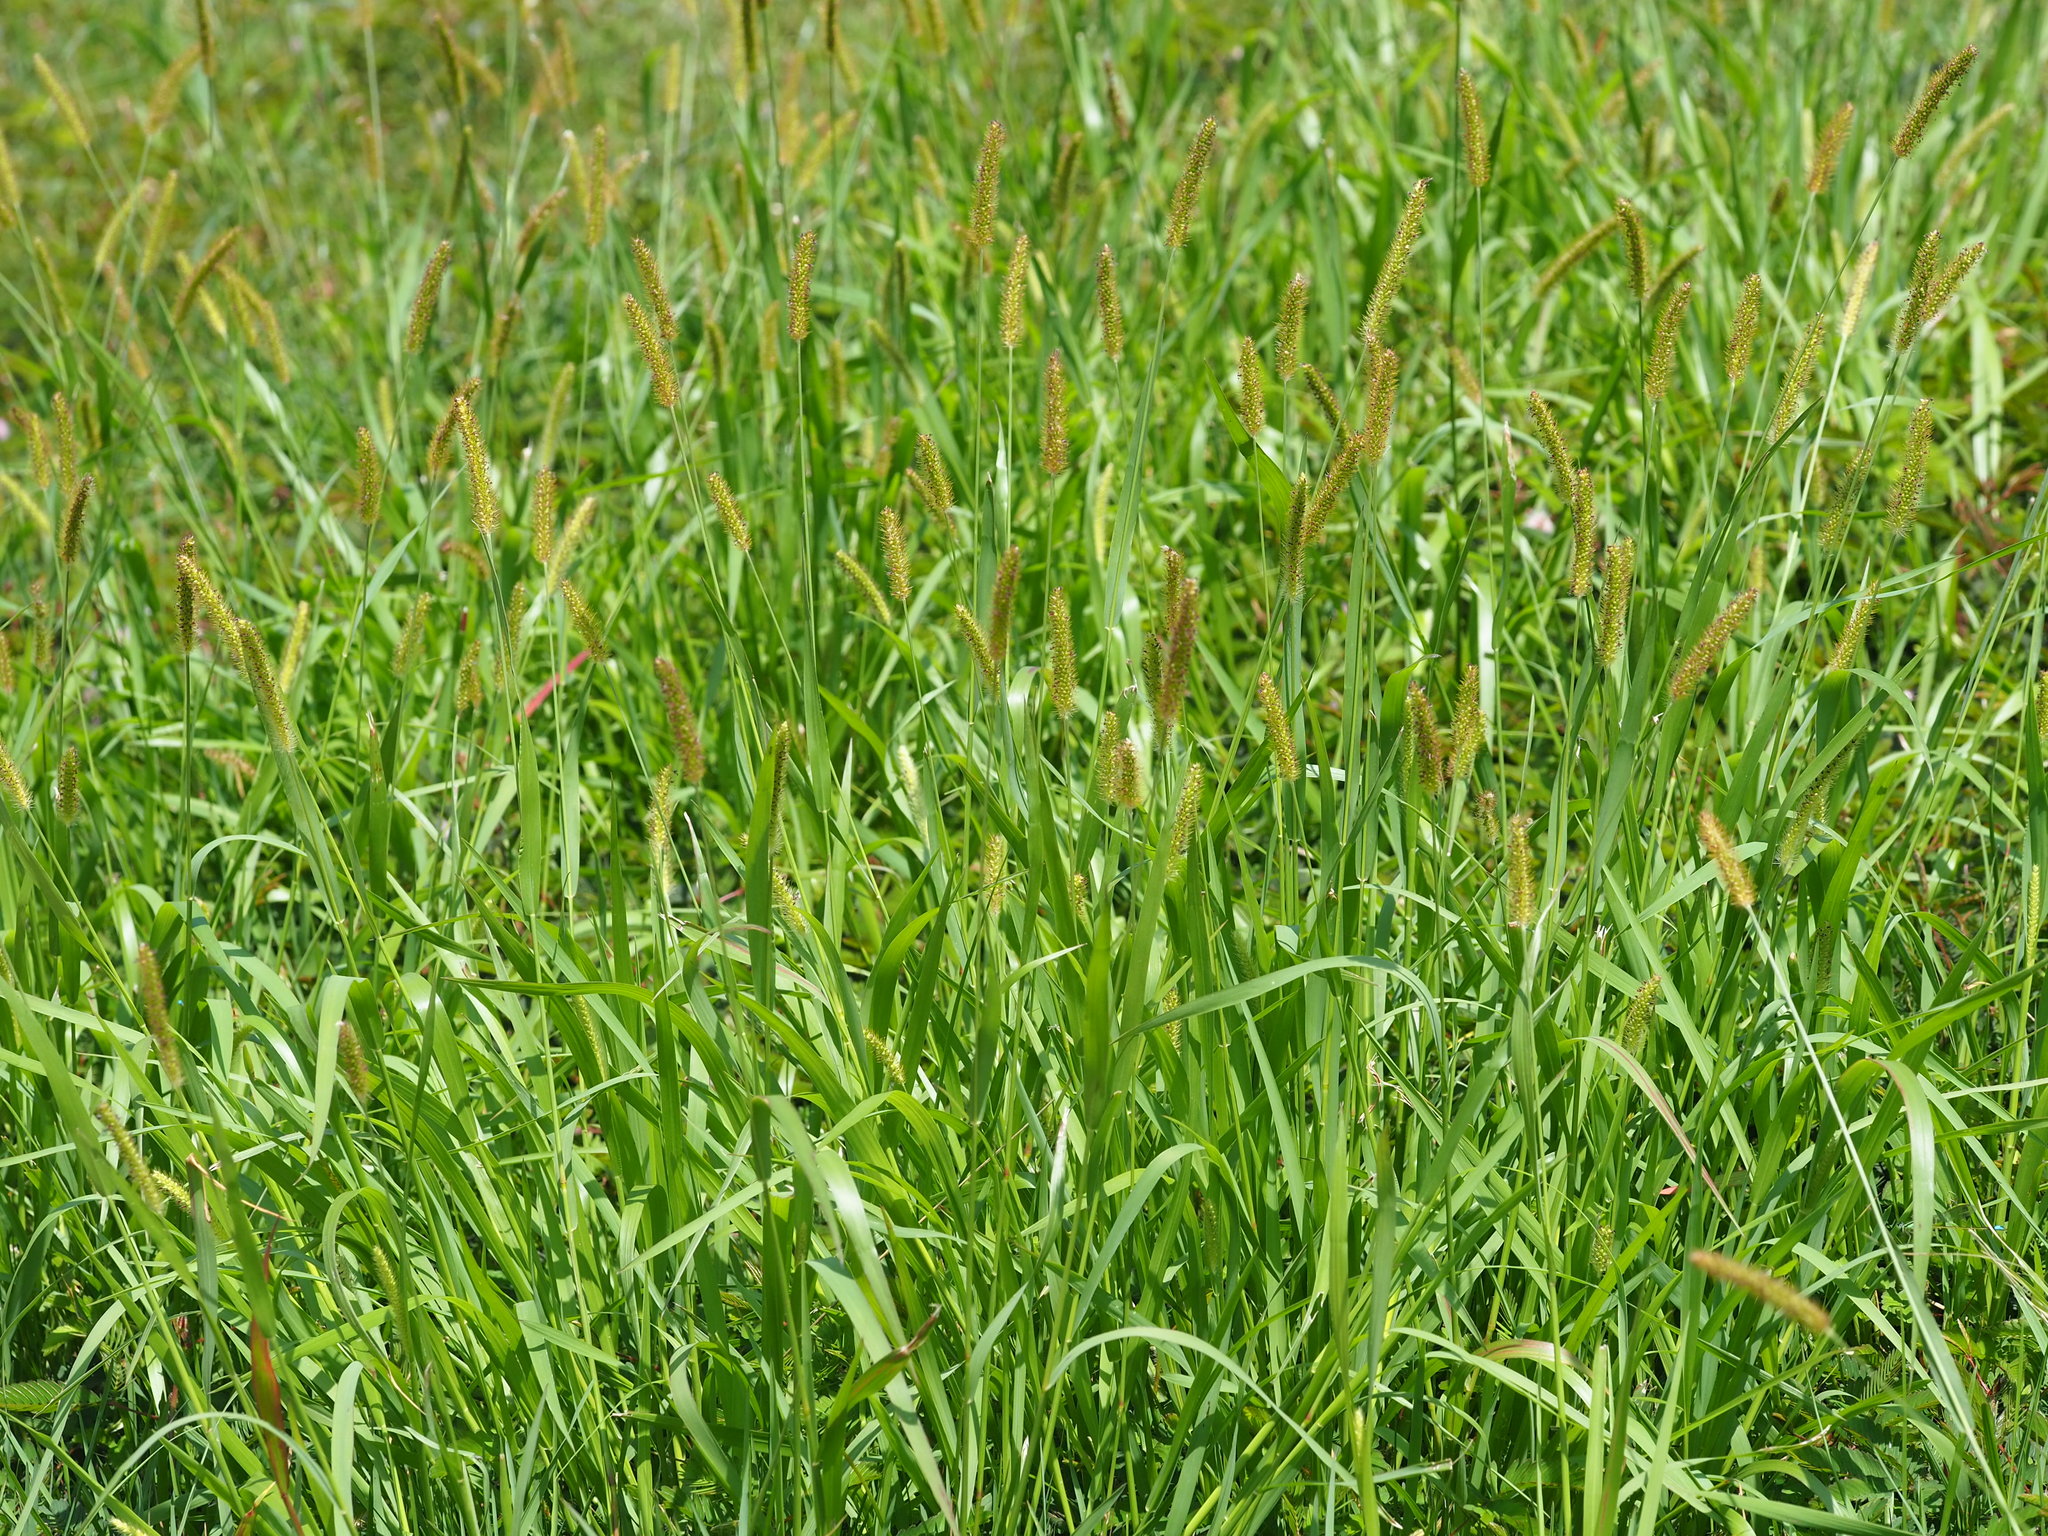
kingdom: Plantae
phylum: Tracheophyta
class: Liliopsida
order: Poales
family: Poaceae
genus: Setaria
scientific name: Setaria parviflora
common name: Knotroot bristle-grass
